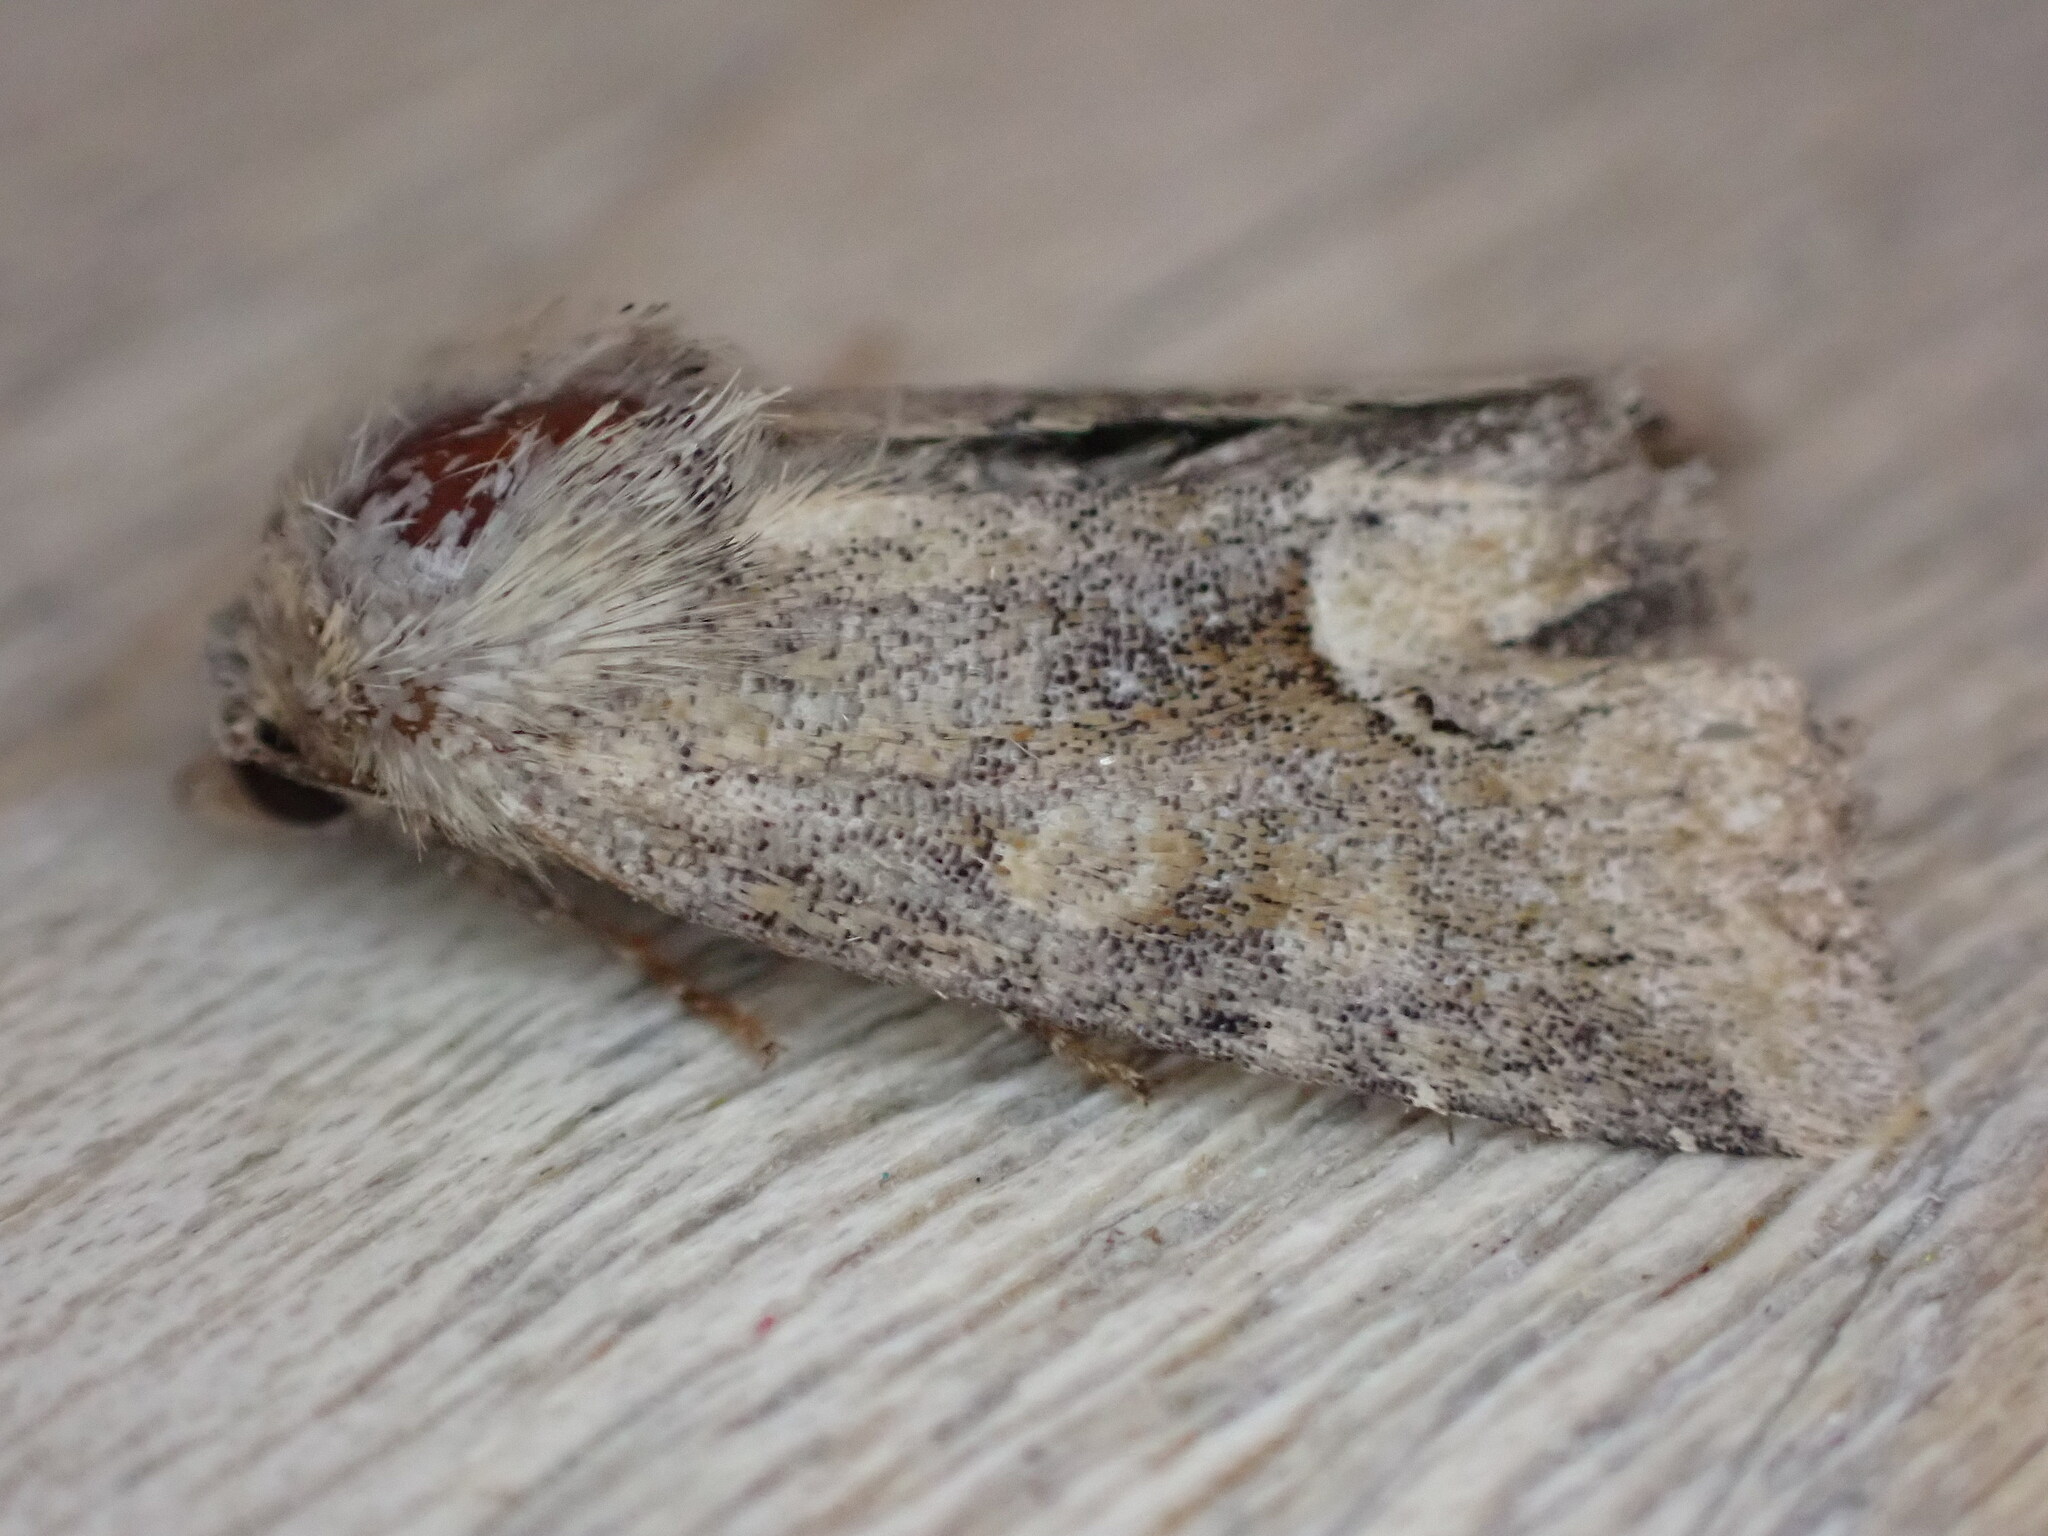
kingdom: Animalia
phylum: Arthropoda
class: Insecta
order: Lepidoptera
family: Noctuidae
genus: Oligia
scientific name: Oligia fasciuncula
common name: Middle-barred minor
